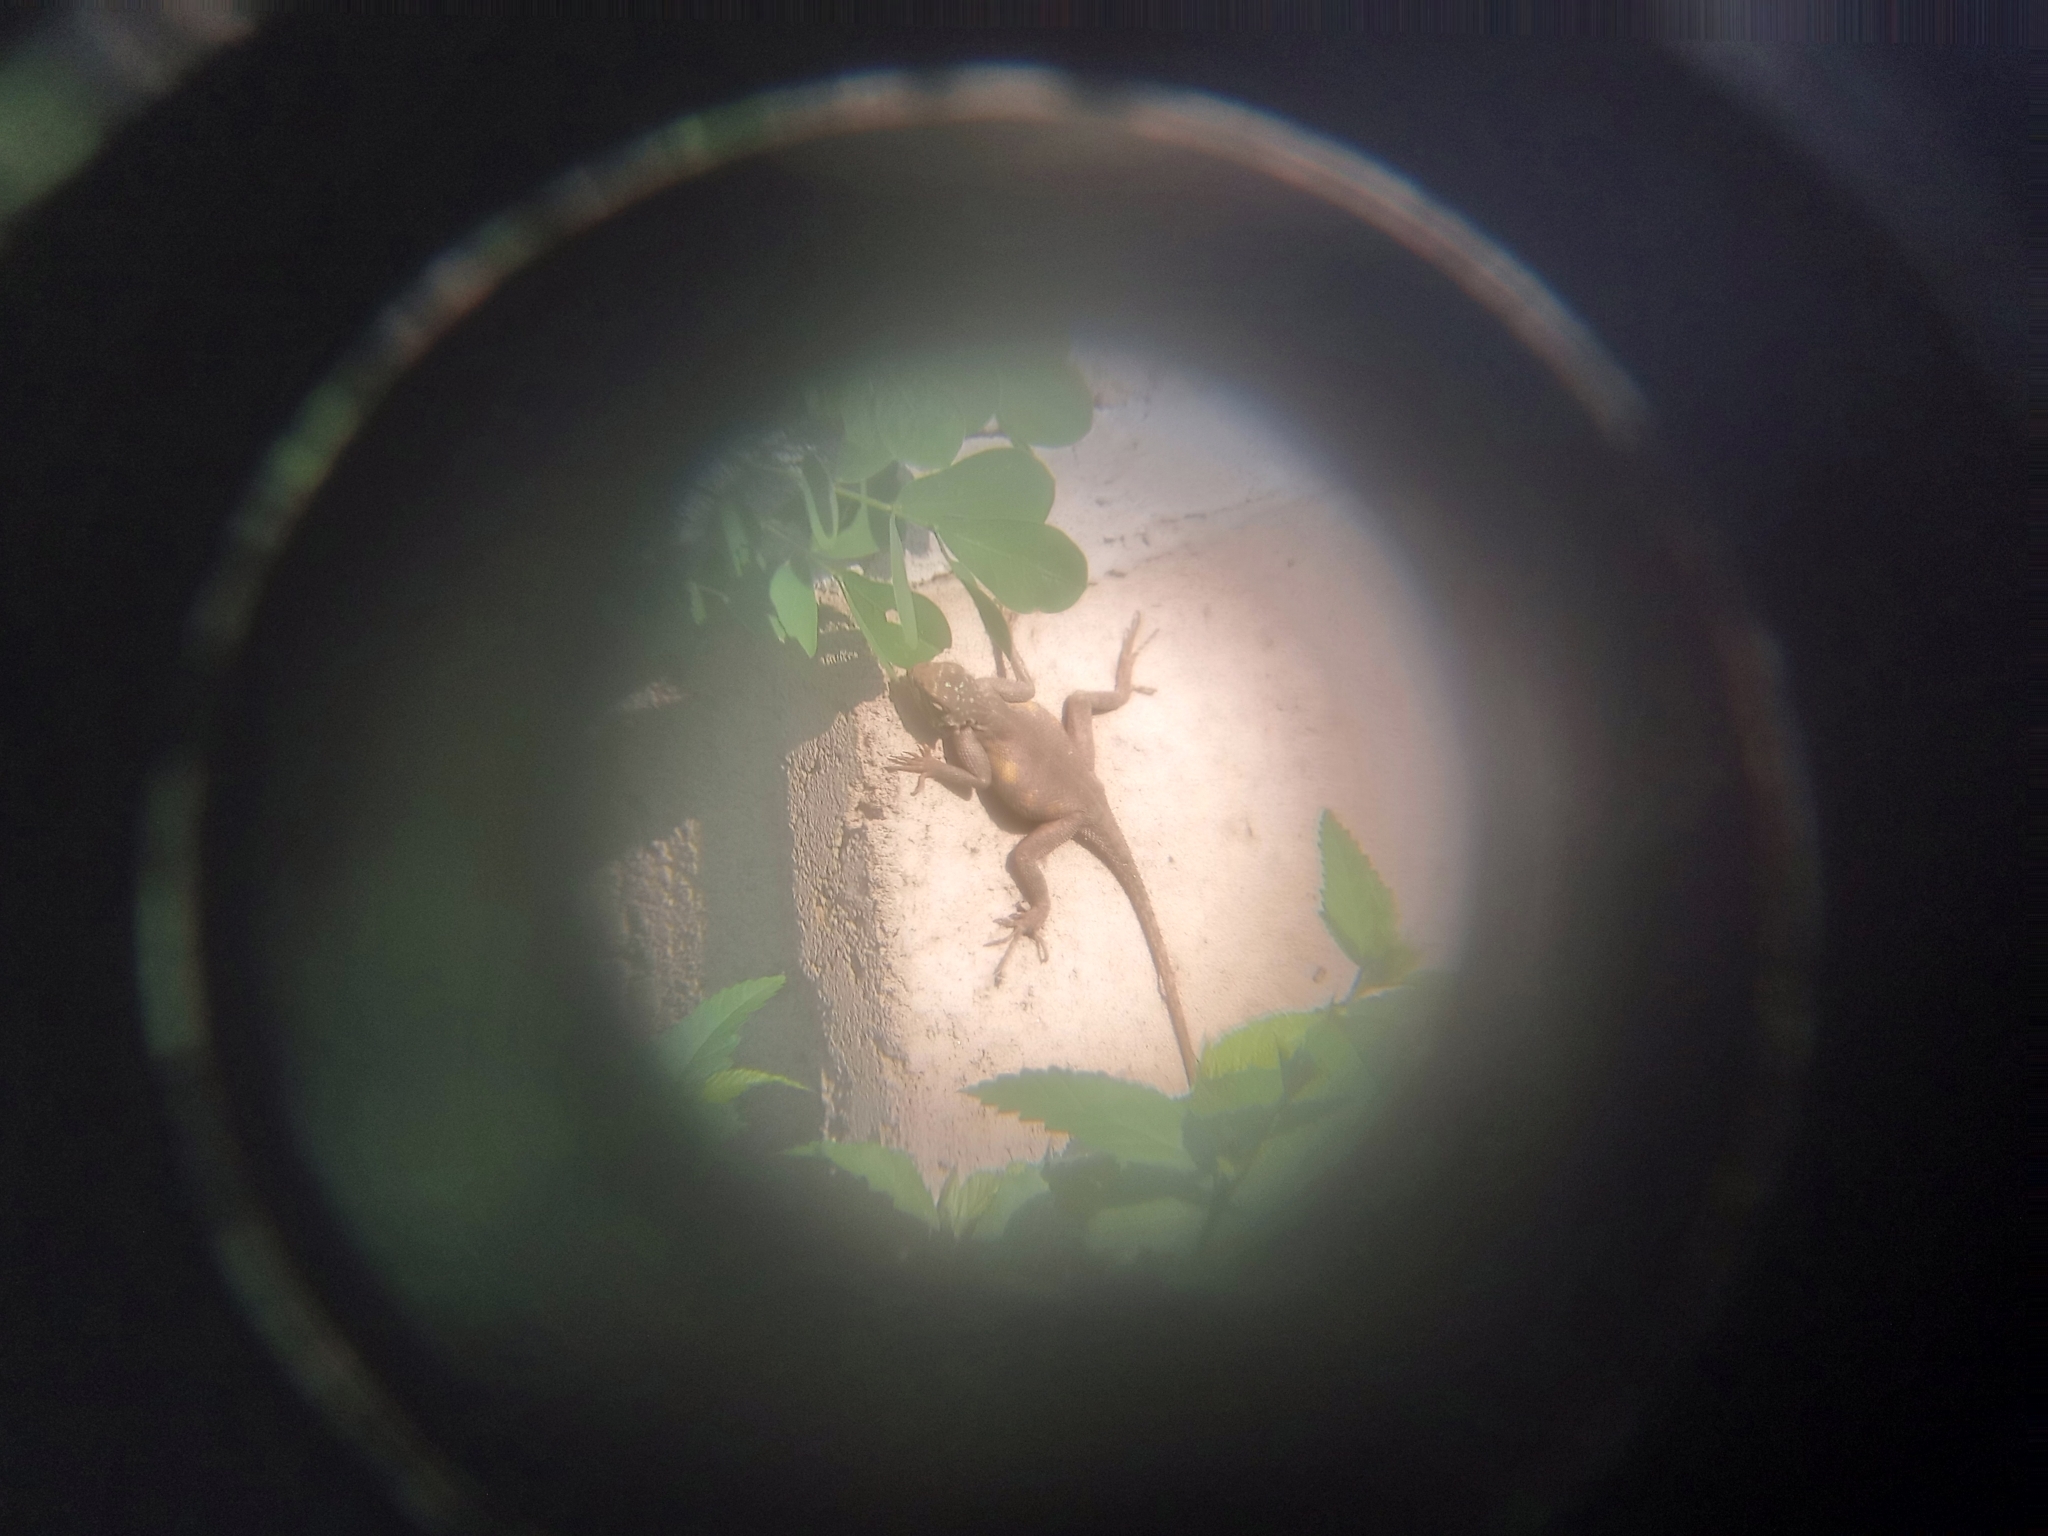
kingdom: Animalia
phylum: Chordata
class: Squamata
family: Agamidae
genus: Agama
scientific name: Agama agama
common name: Common agama
